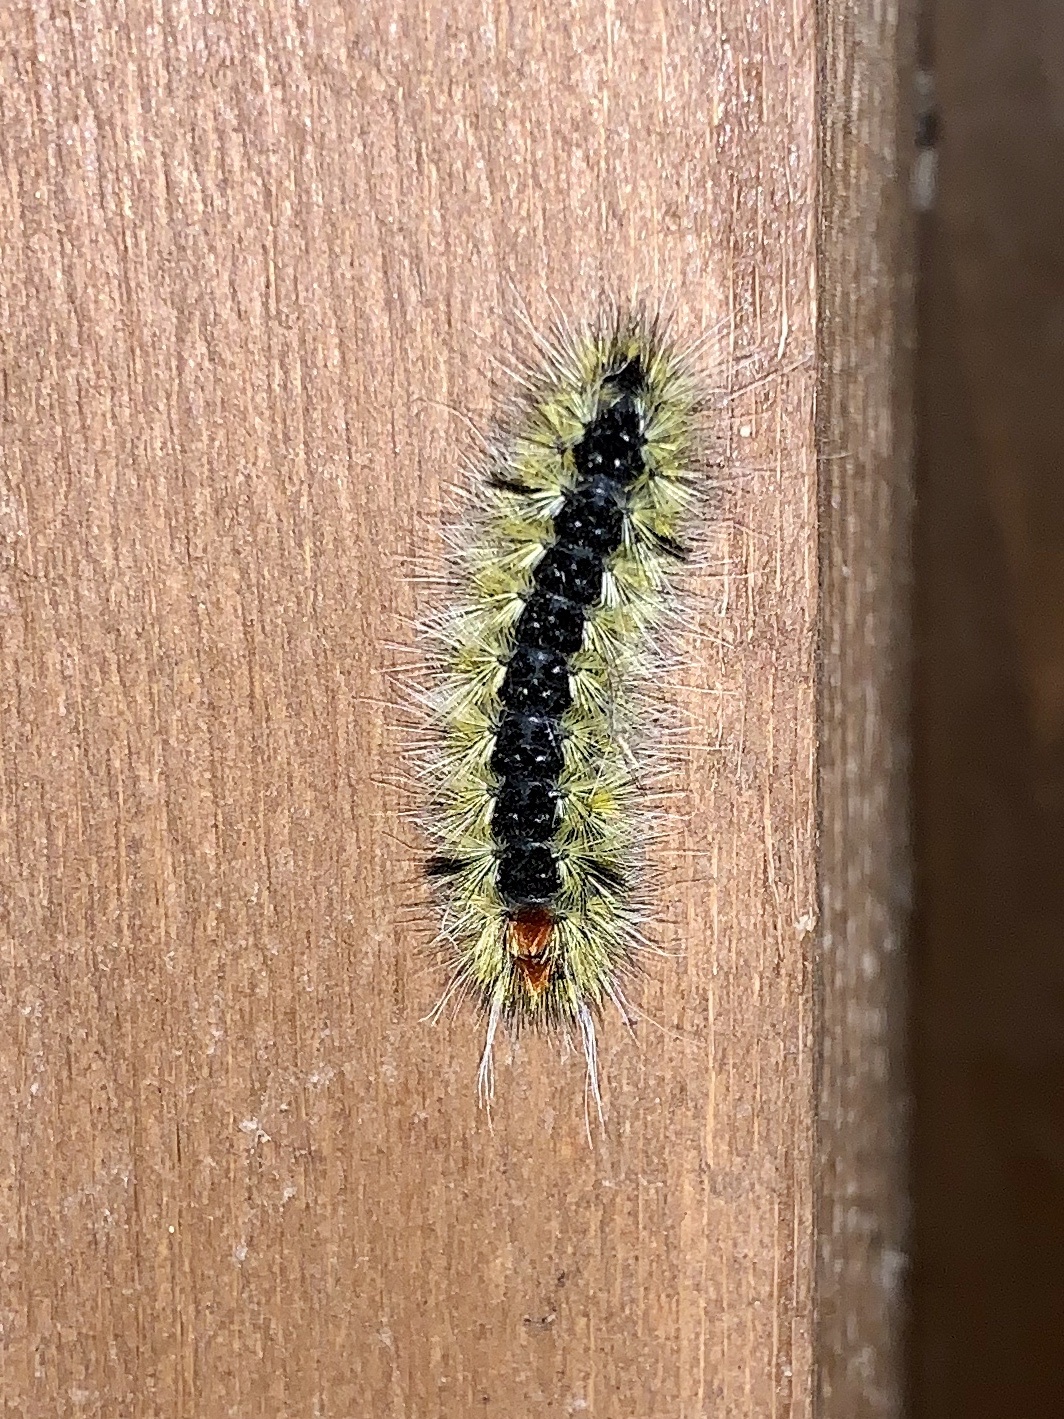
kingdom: Animalia
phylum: Arthropoda
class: Insecta
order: Lepidoptera
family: Erebidae
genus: Lophocampa
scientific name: Lophocampa ingens
